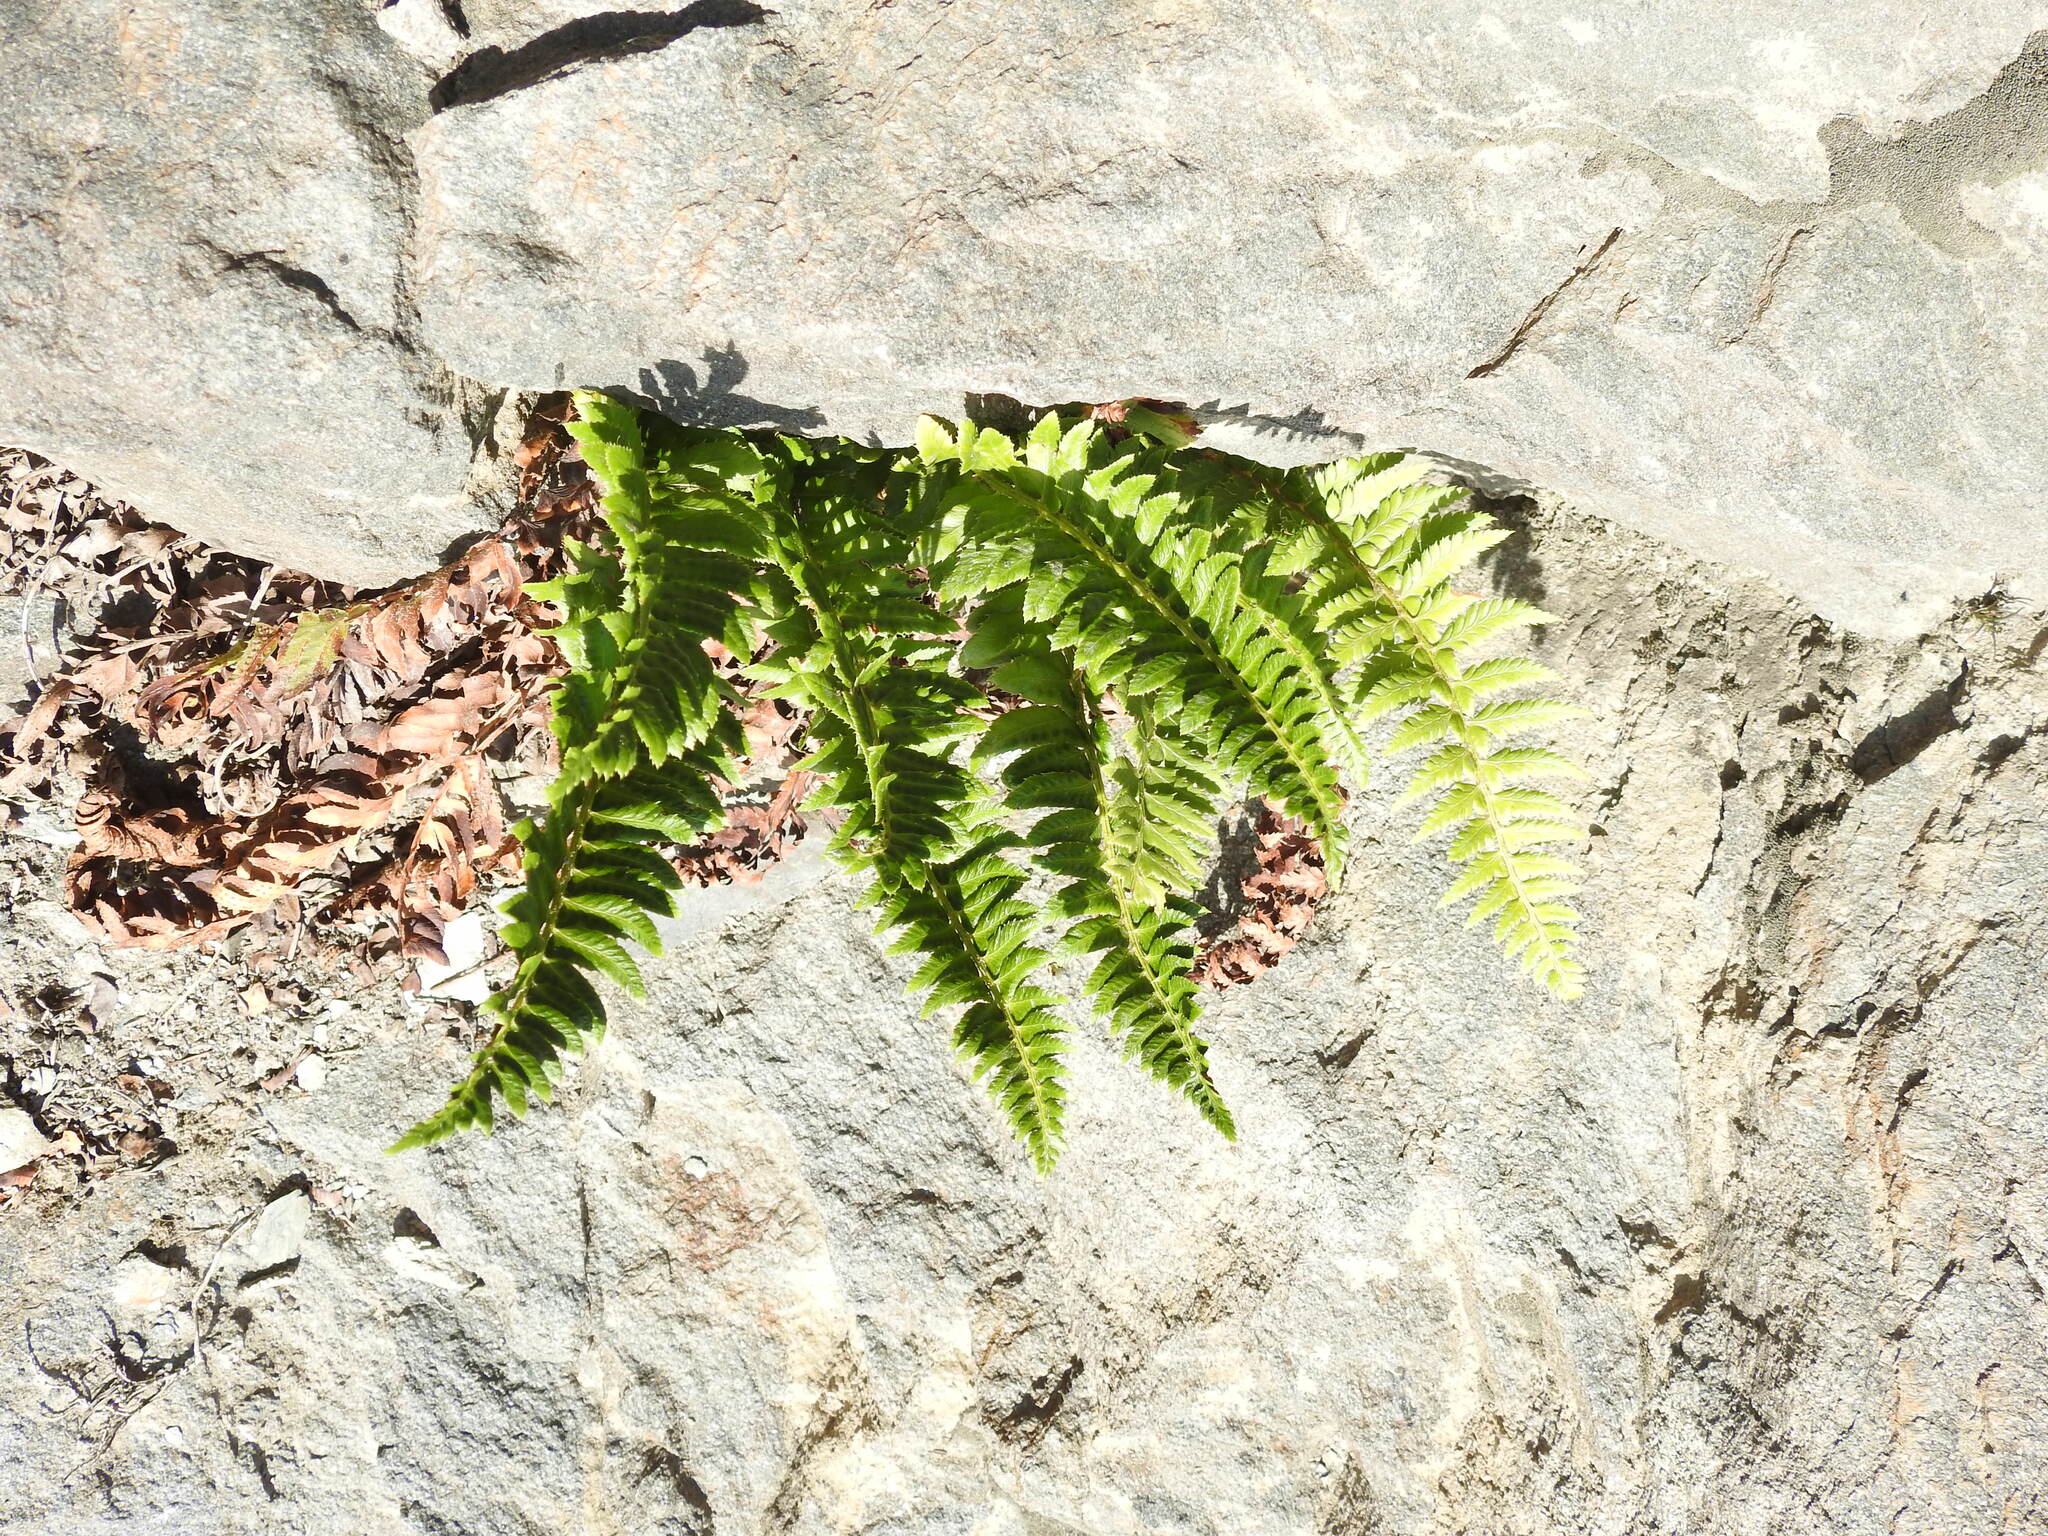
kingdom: Plantae
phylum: Tracheophyta
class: Polypodiopsida
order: Polypodiales
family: Dryopteridaceae
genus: Polystichum
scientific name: Polystichum lonchitis
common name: Holly fern
